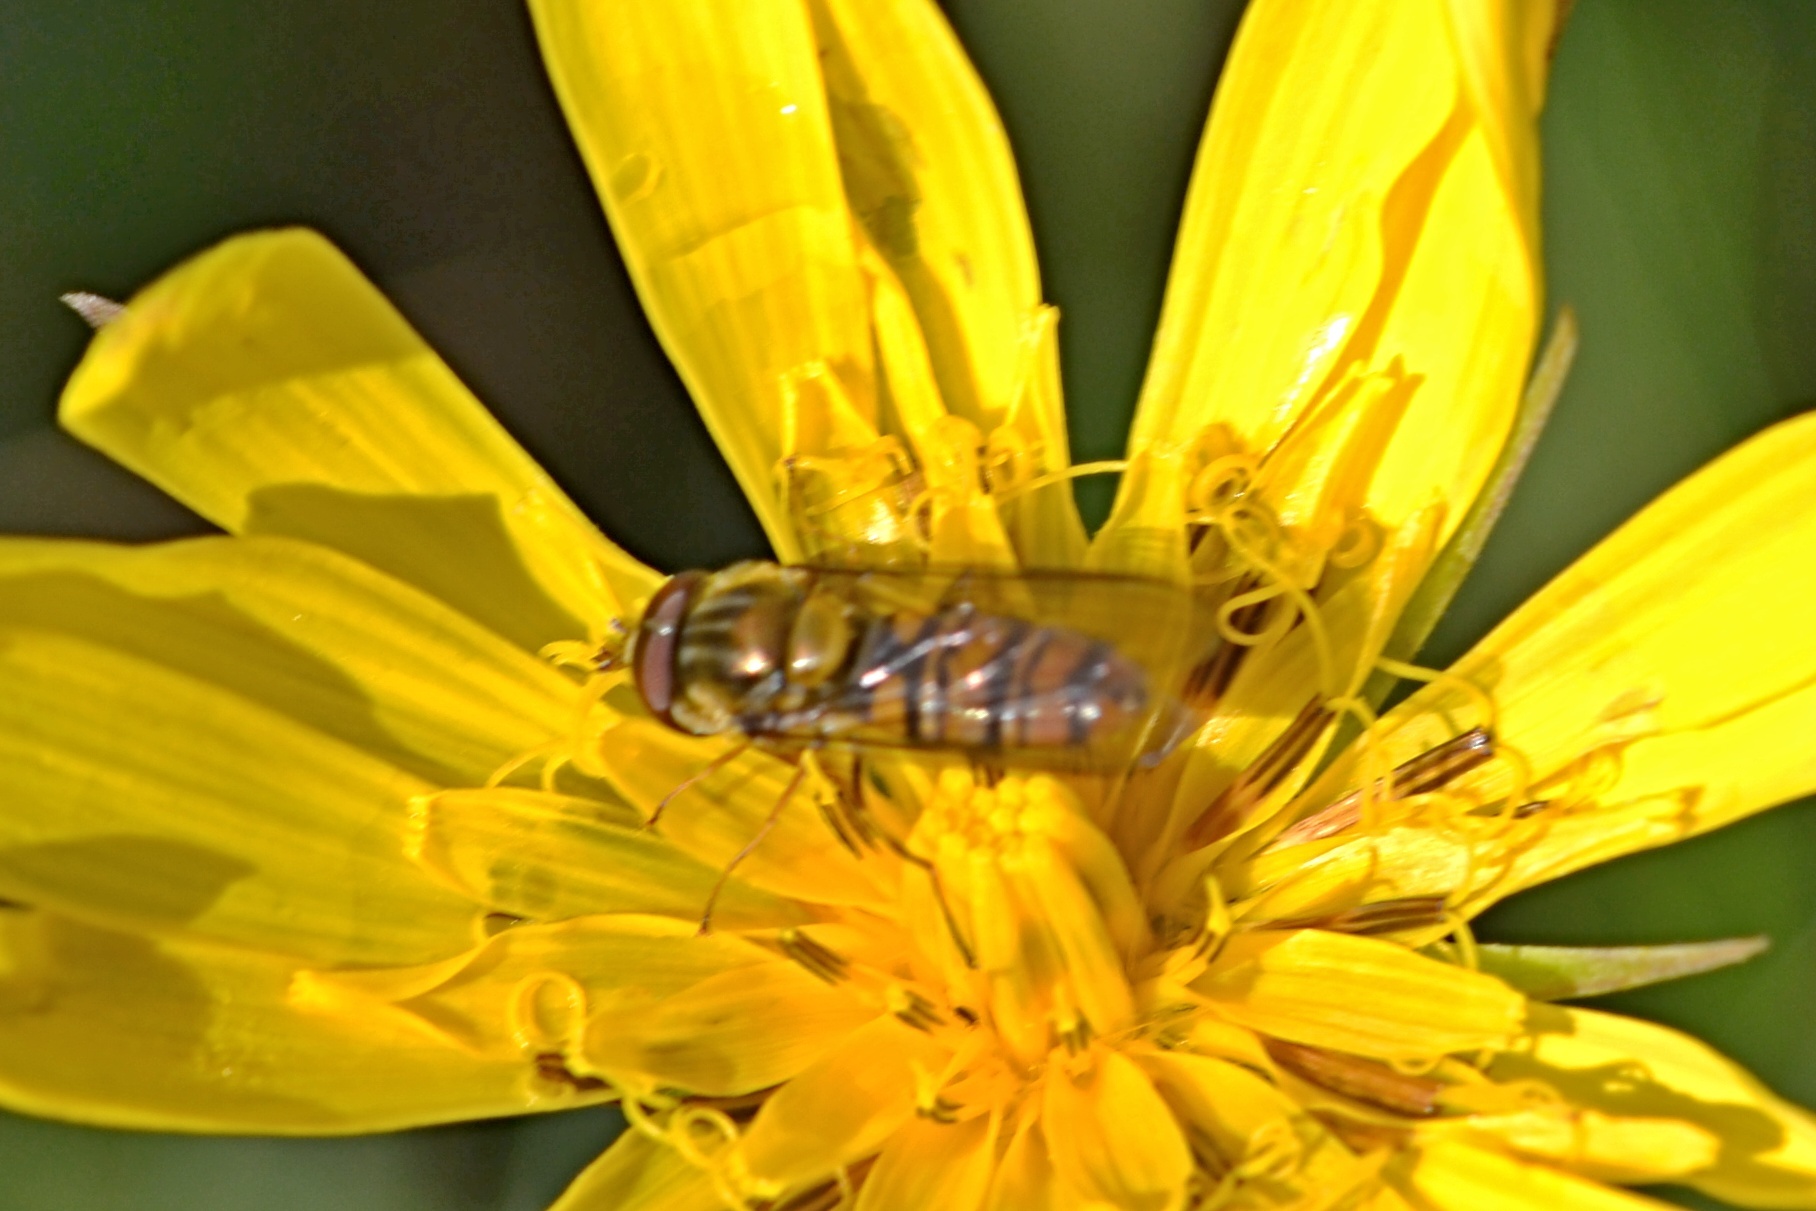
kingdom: Animalia
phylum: Arthropoda
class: Insecta
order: Diptera
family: Syrphidae
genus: Episyrphus
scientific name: Episyrphus balteatus
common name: Marmalade hoverfly
